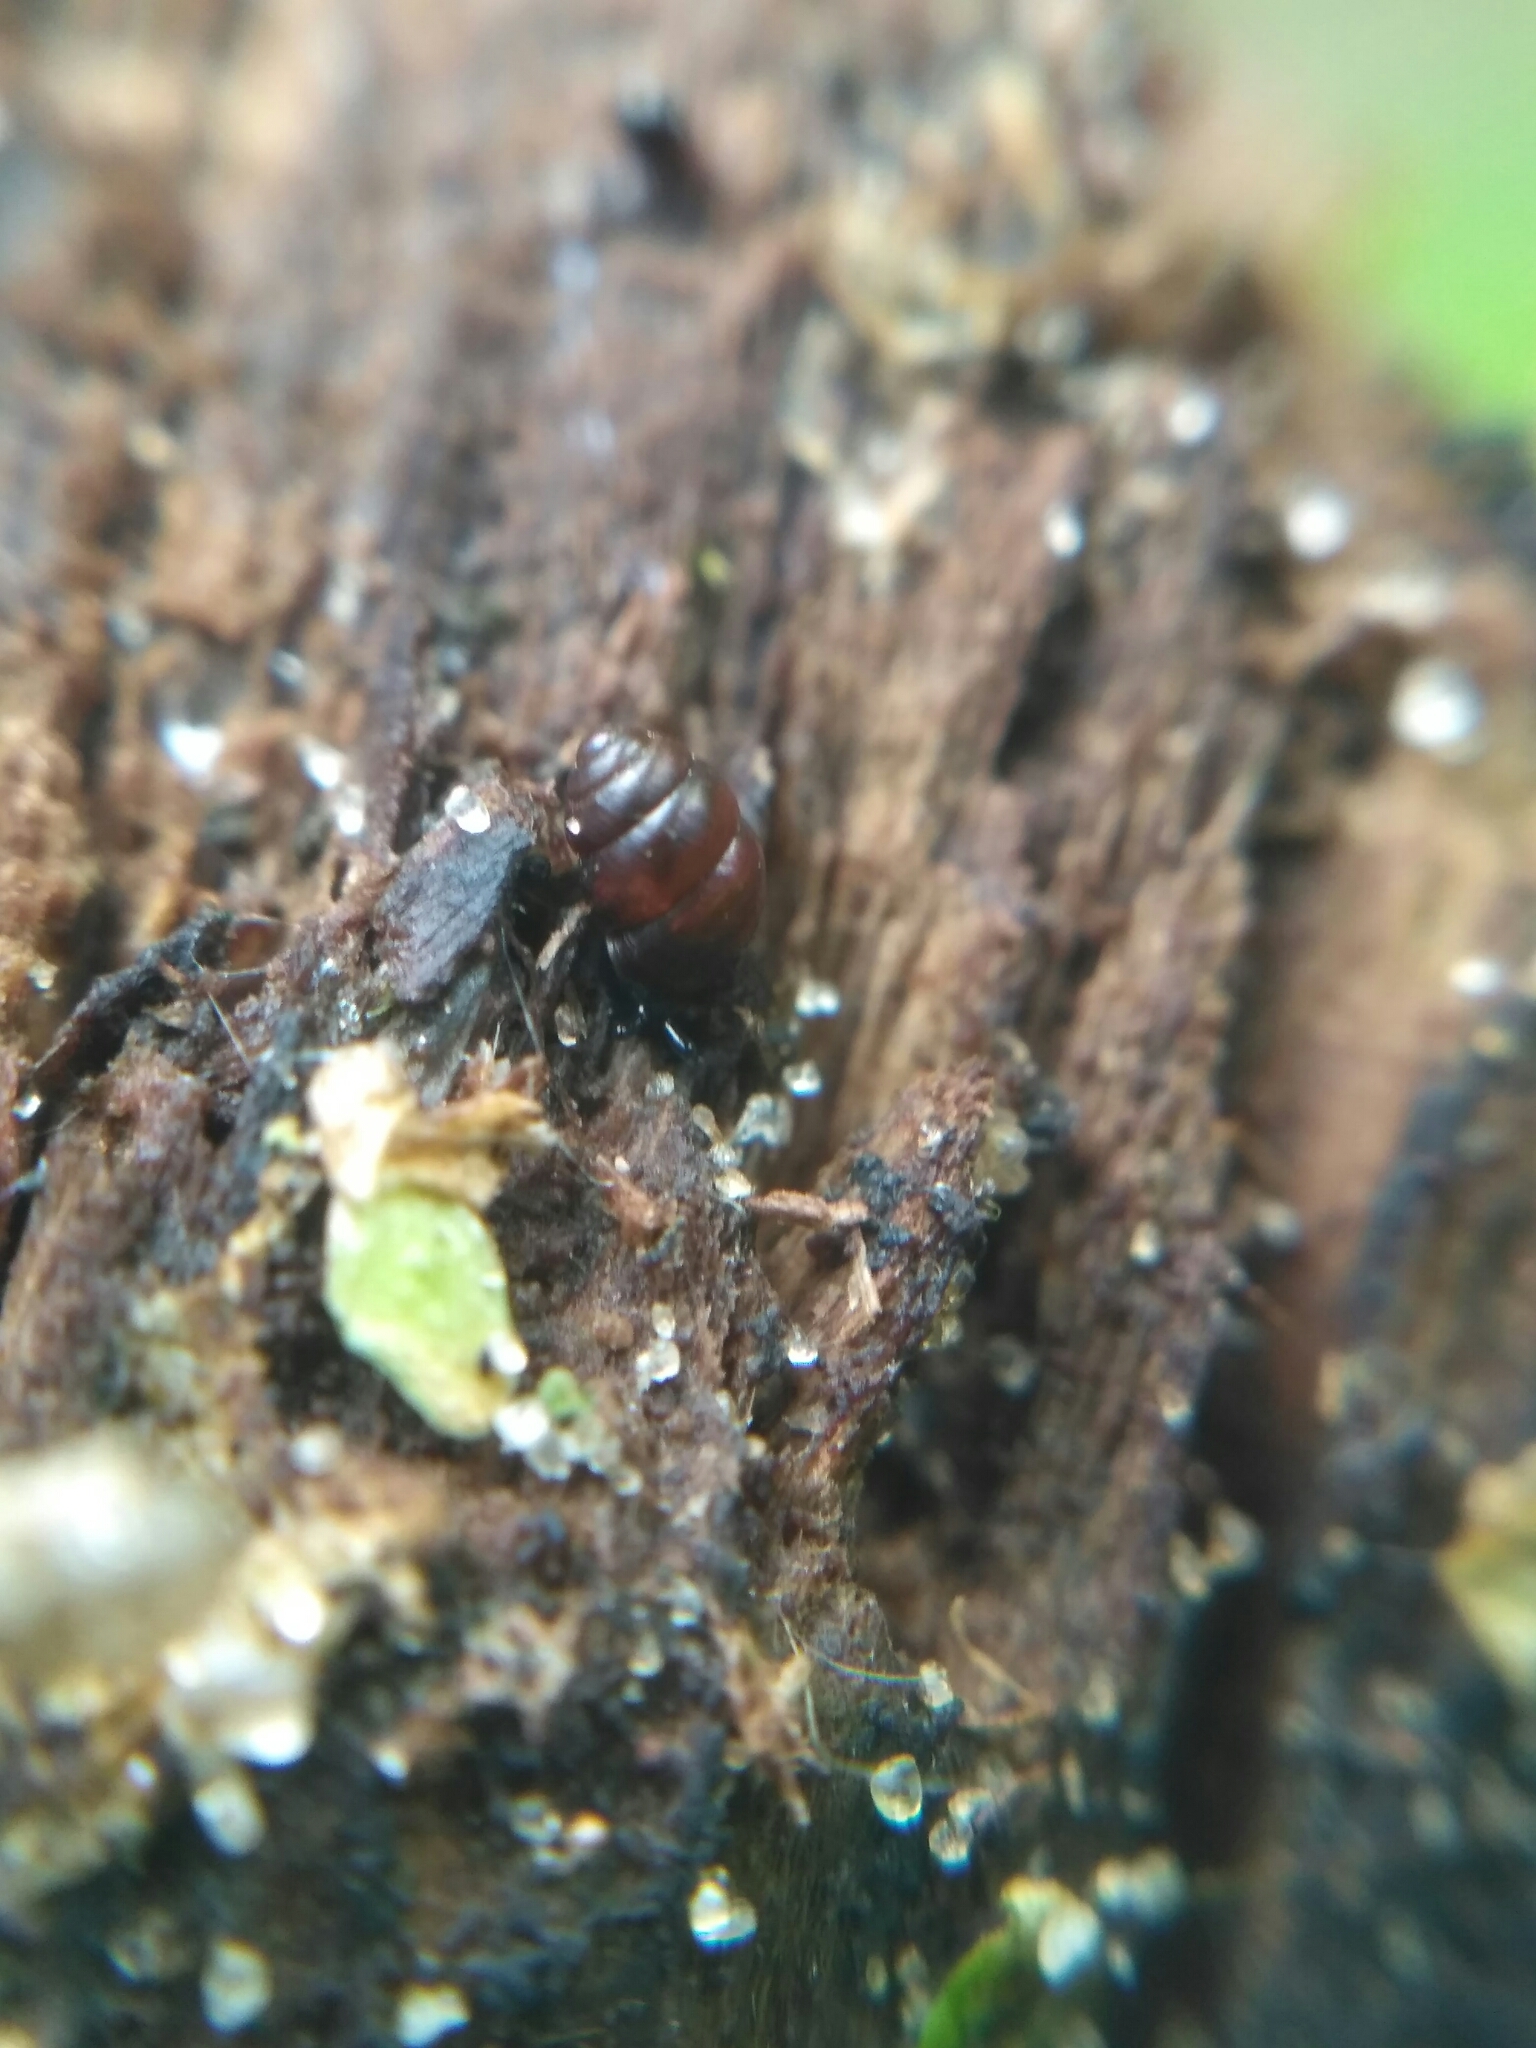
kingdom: Animalia
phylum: Mollusca
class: Gastropoda
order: Stylommatophora
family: Vertiginidae
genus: Vertigo
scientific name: Vertigo antivertigo
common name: Marsh whorl snail
